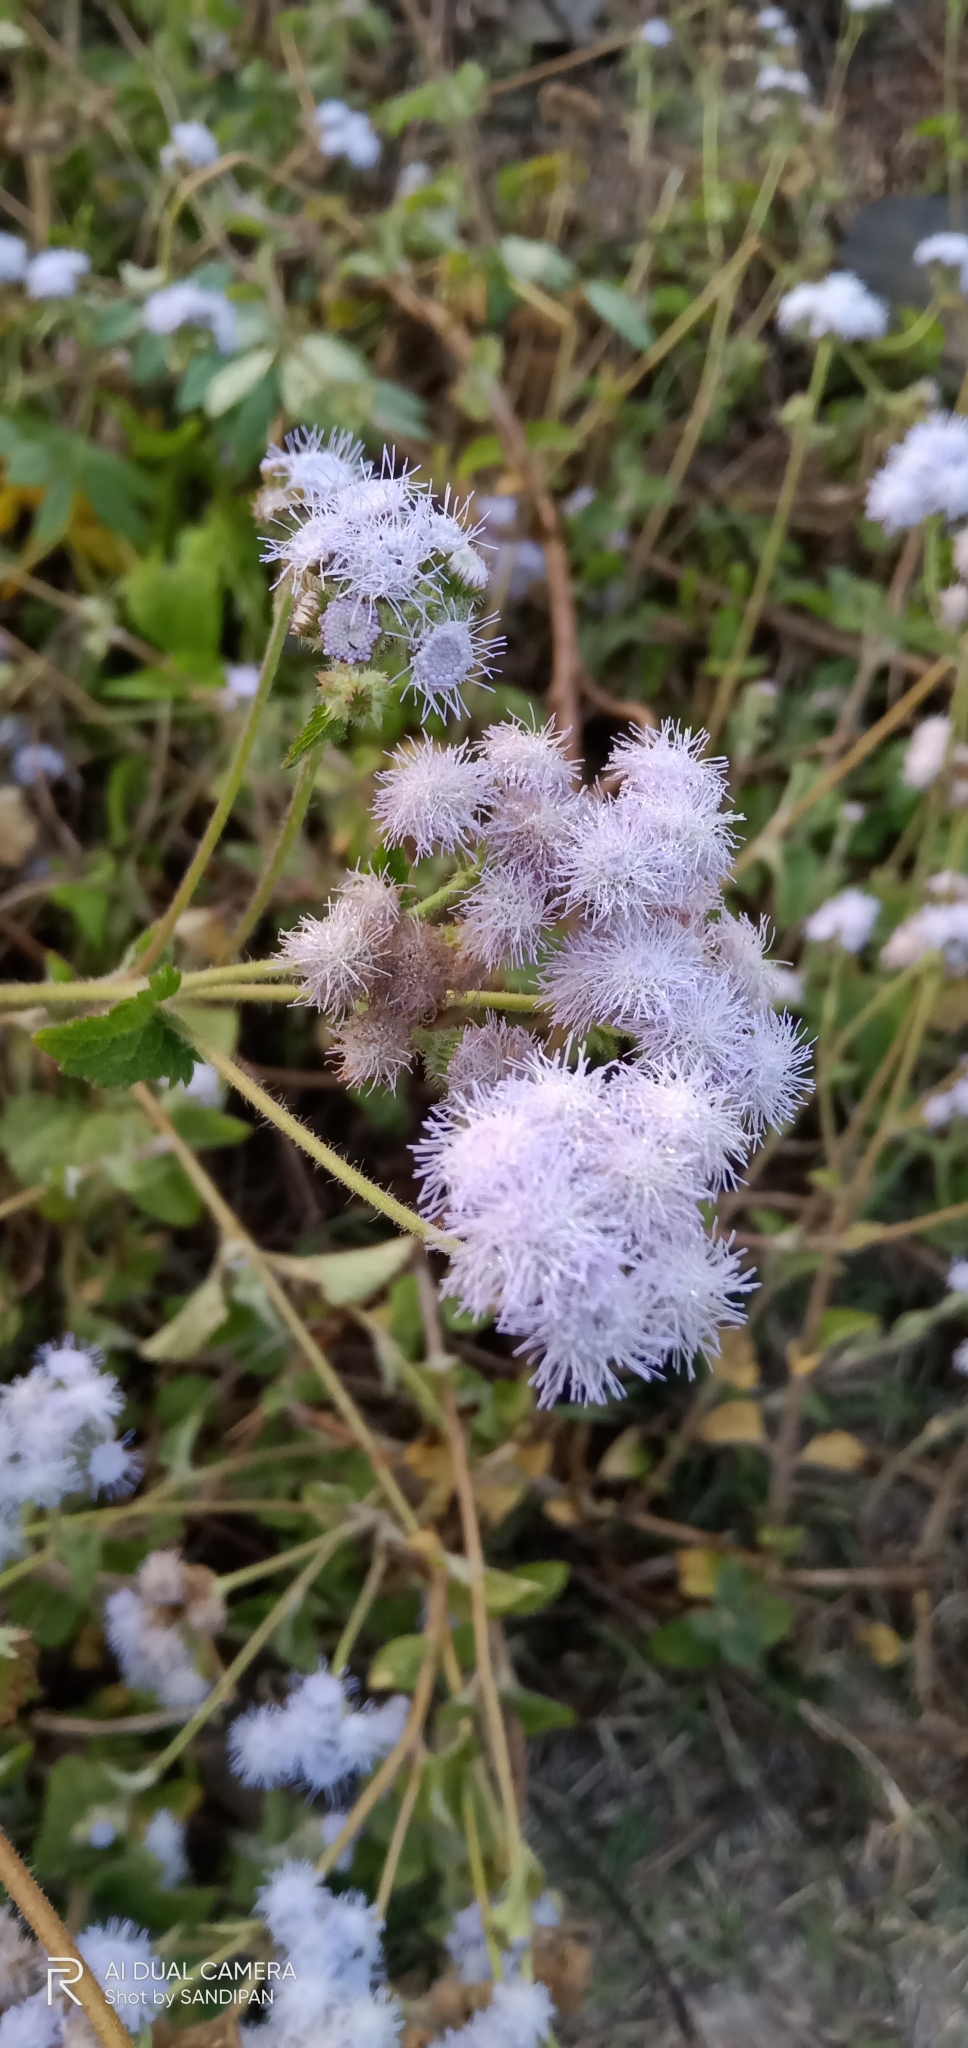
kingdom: Plantae
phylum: Tracheophyta
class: Magnoliopsida
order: Asterales
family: Asteraceae
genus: Ageratum
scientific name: Ageratum houstonianum
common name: Bluemink
